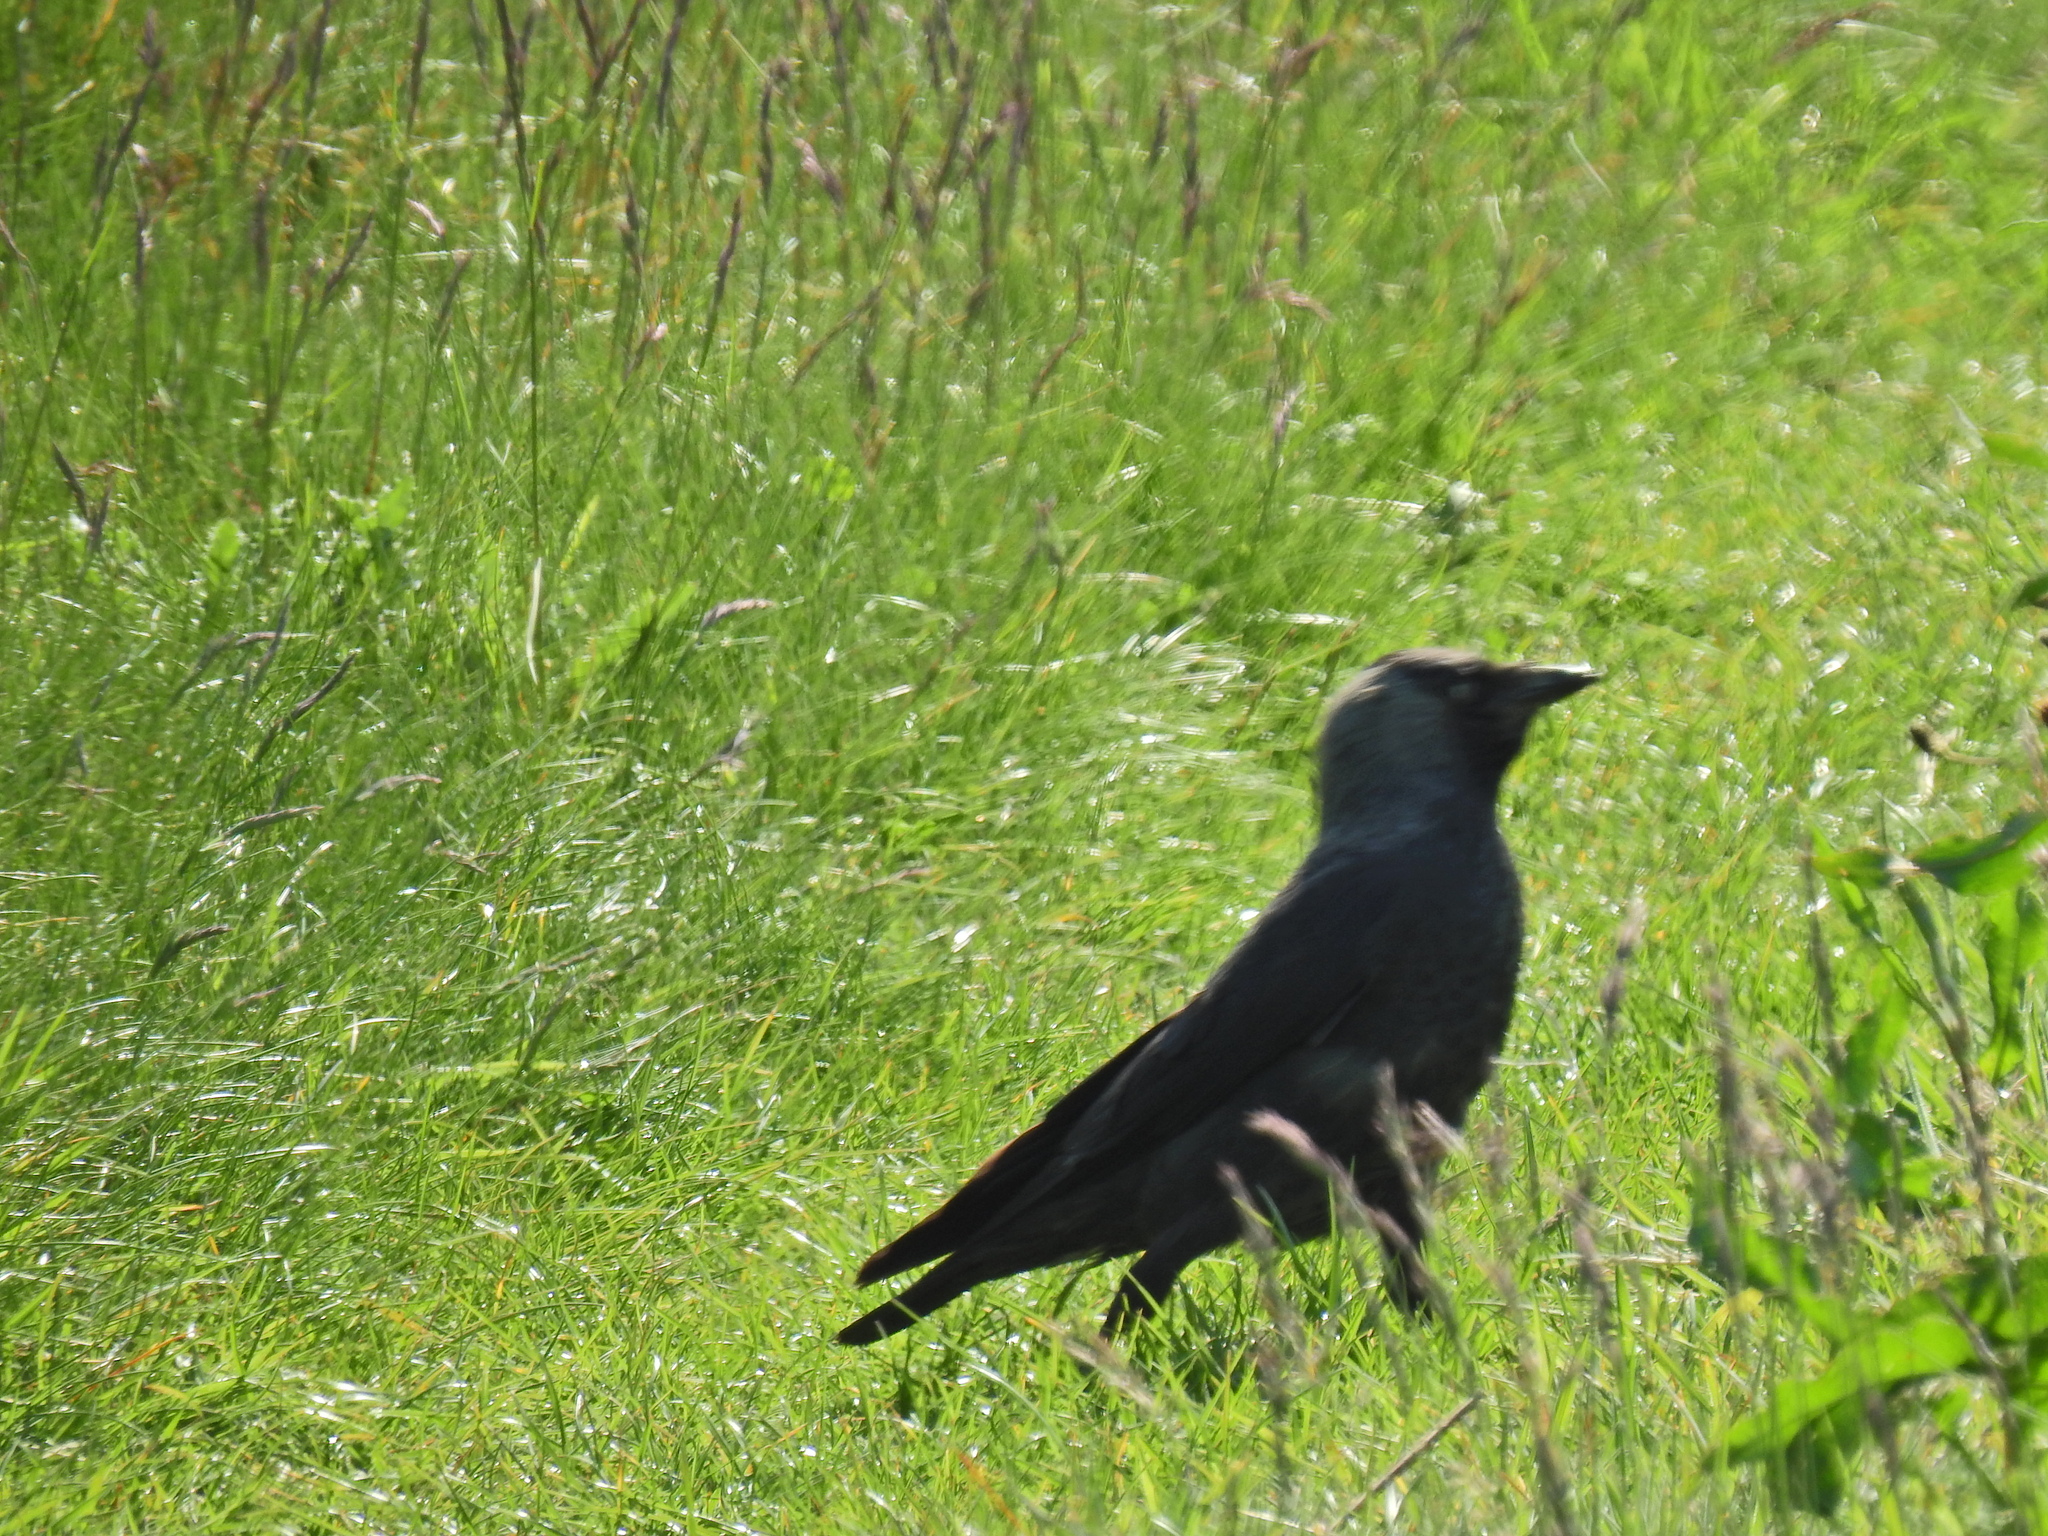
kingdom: Animalia
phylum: Chordata
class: Aves
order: Passeriformes
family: Corvidae
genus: Coloeus
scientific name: Coloeus monedula
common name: Western jackdaw
